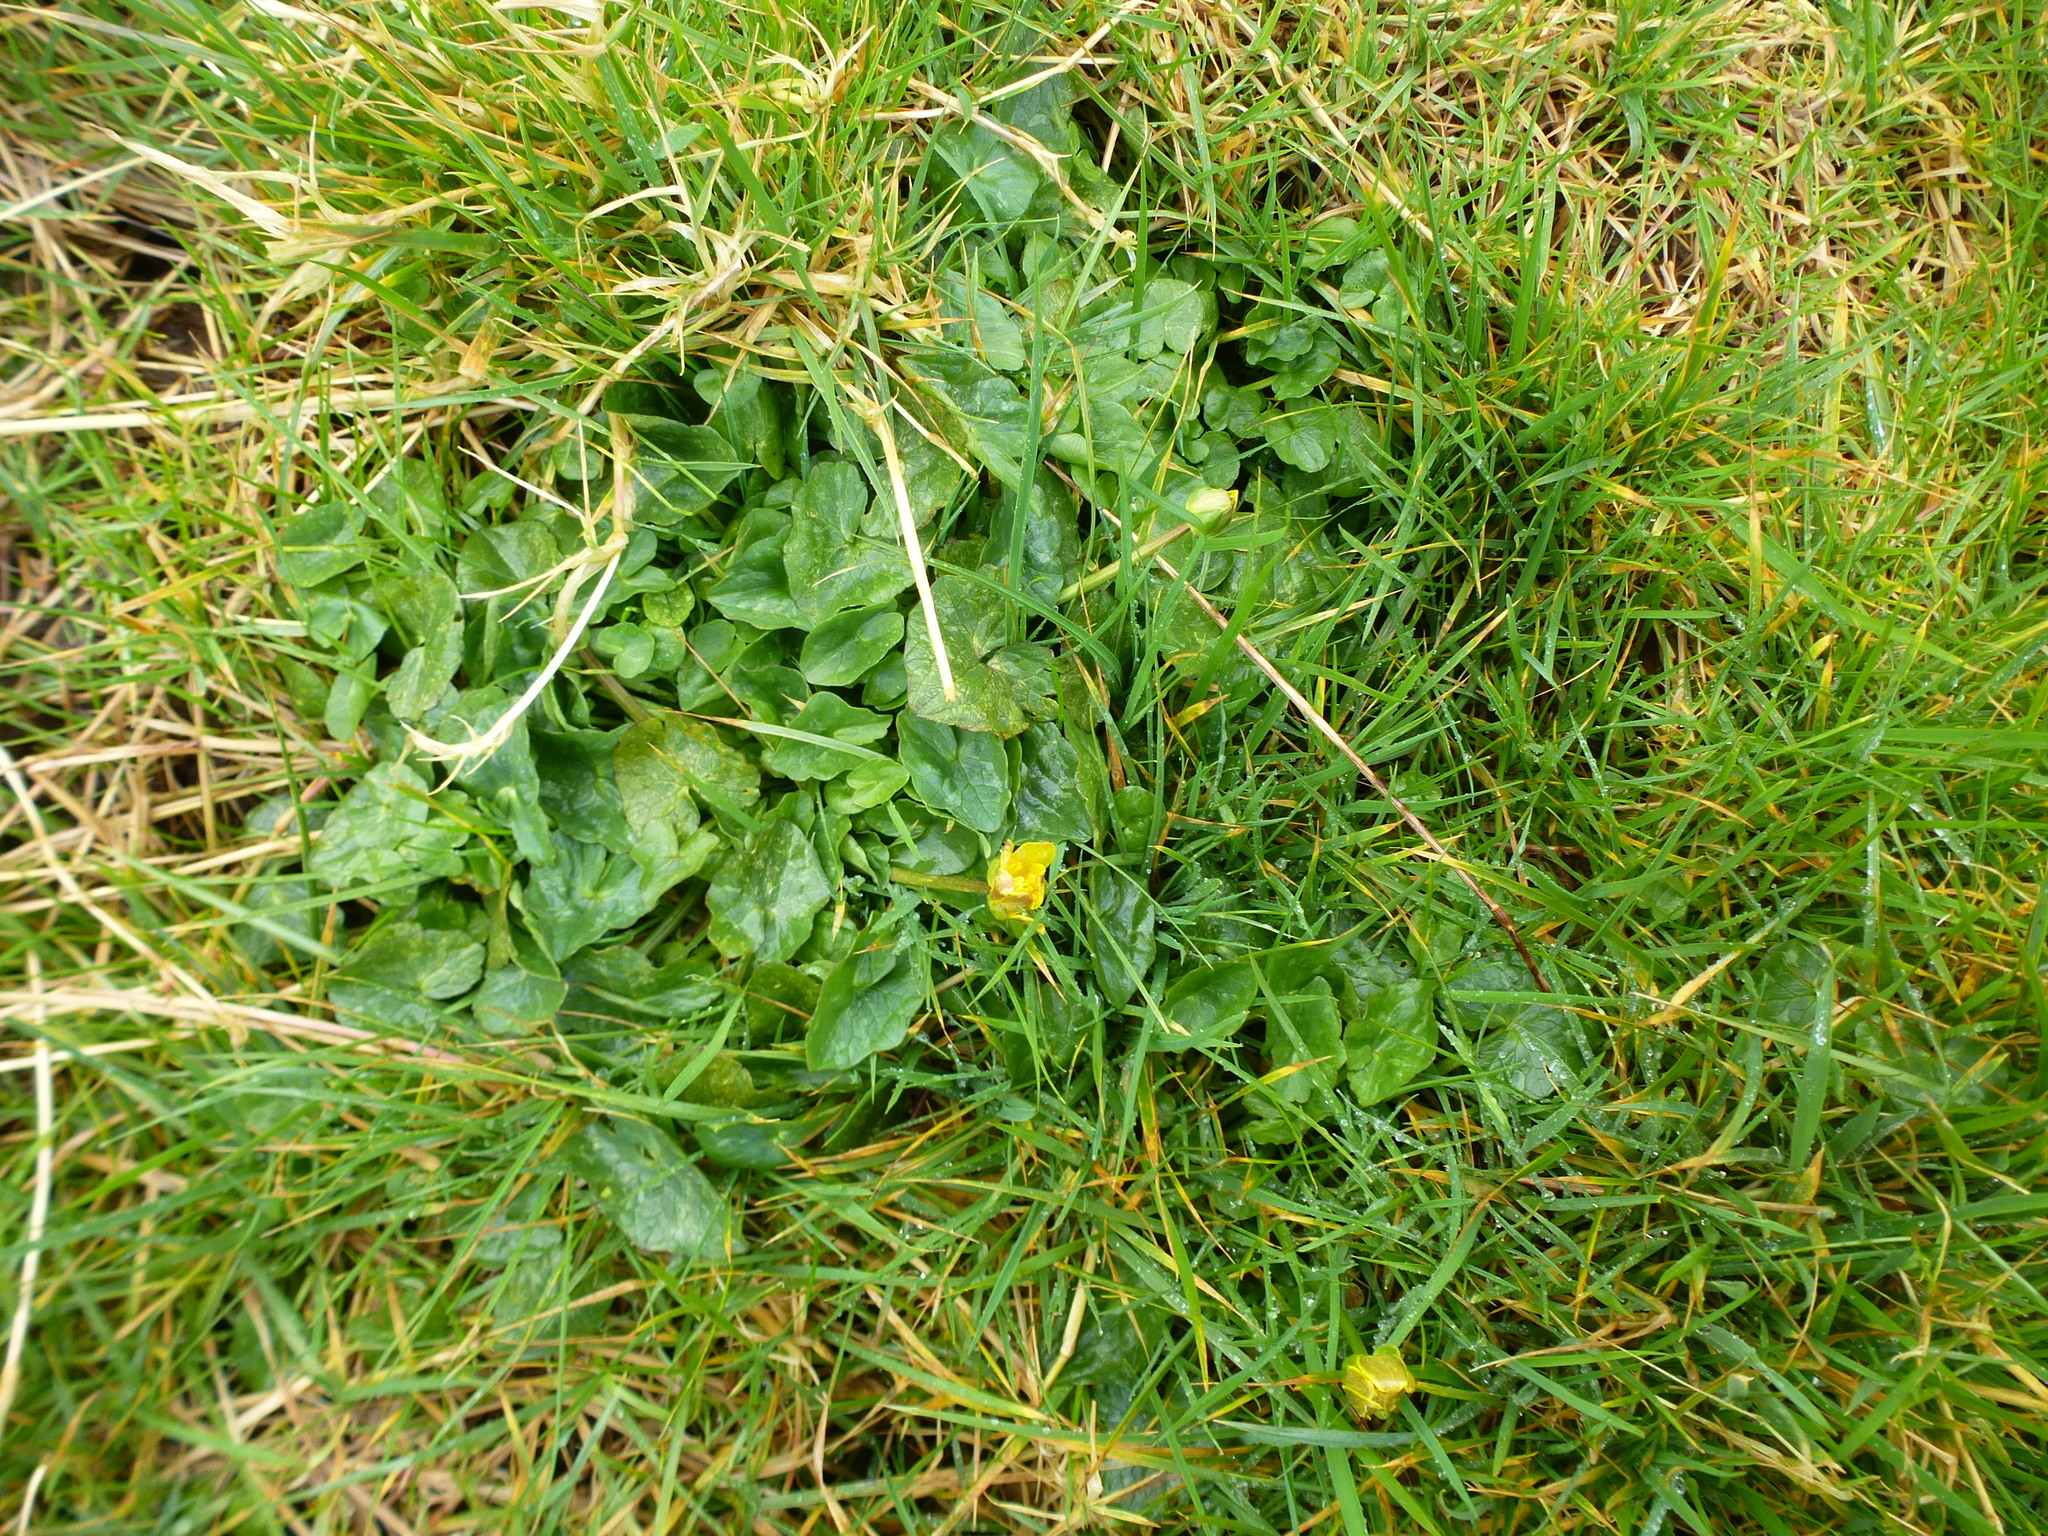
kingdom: Plantae
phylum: Tracheophyta
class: Magnoliopsida
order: Ranunculales
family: Ranunculaceae
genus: Ficaria
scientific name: Ficaria verna
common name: Lesser celandine
